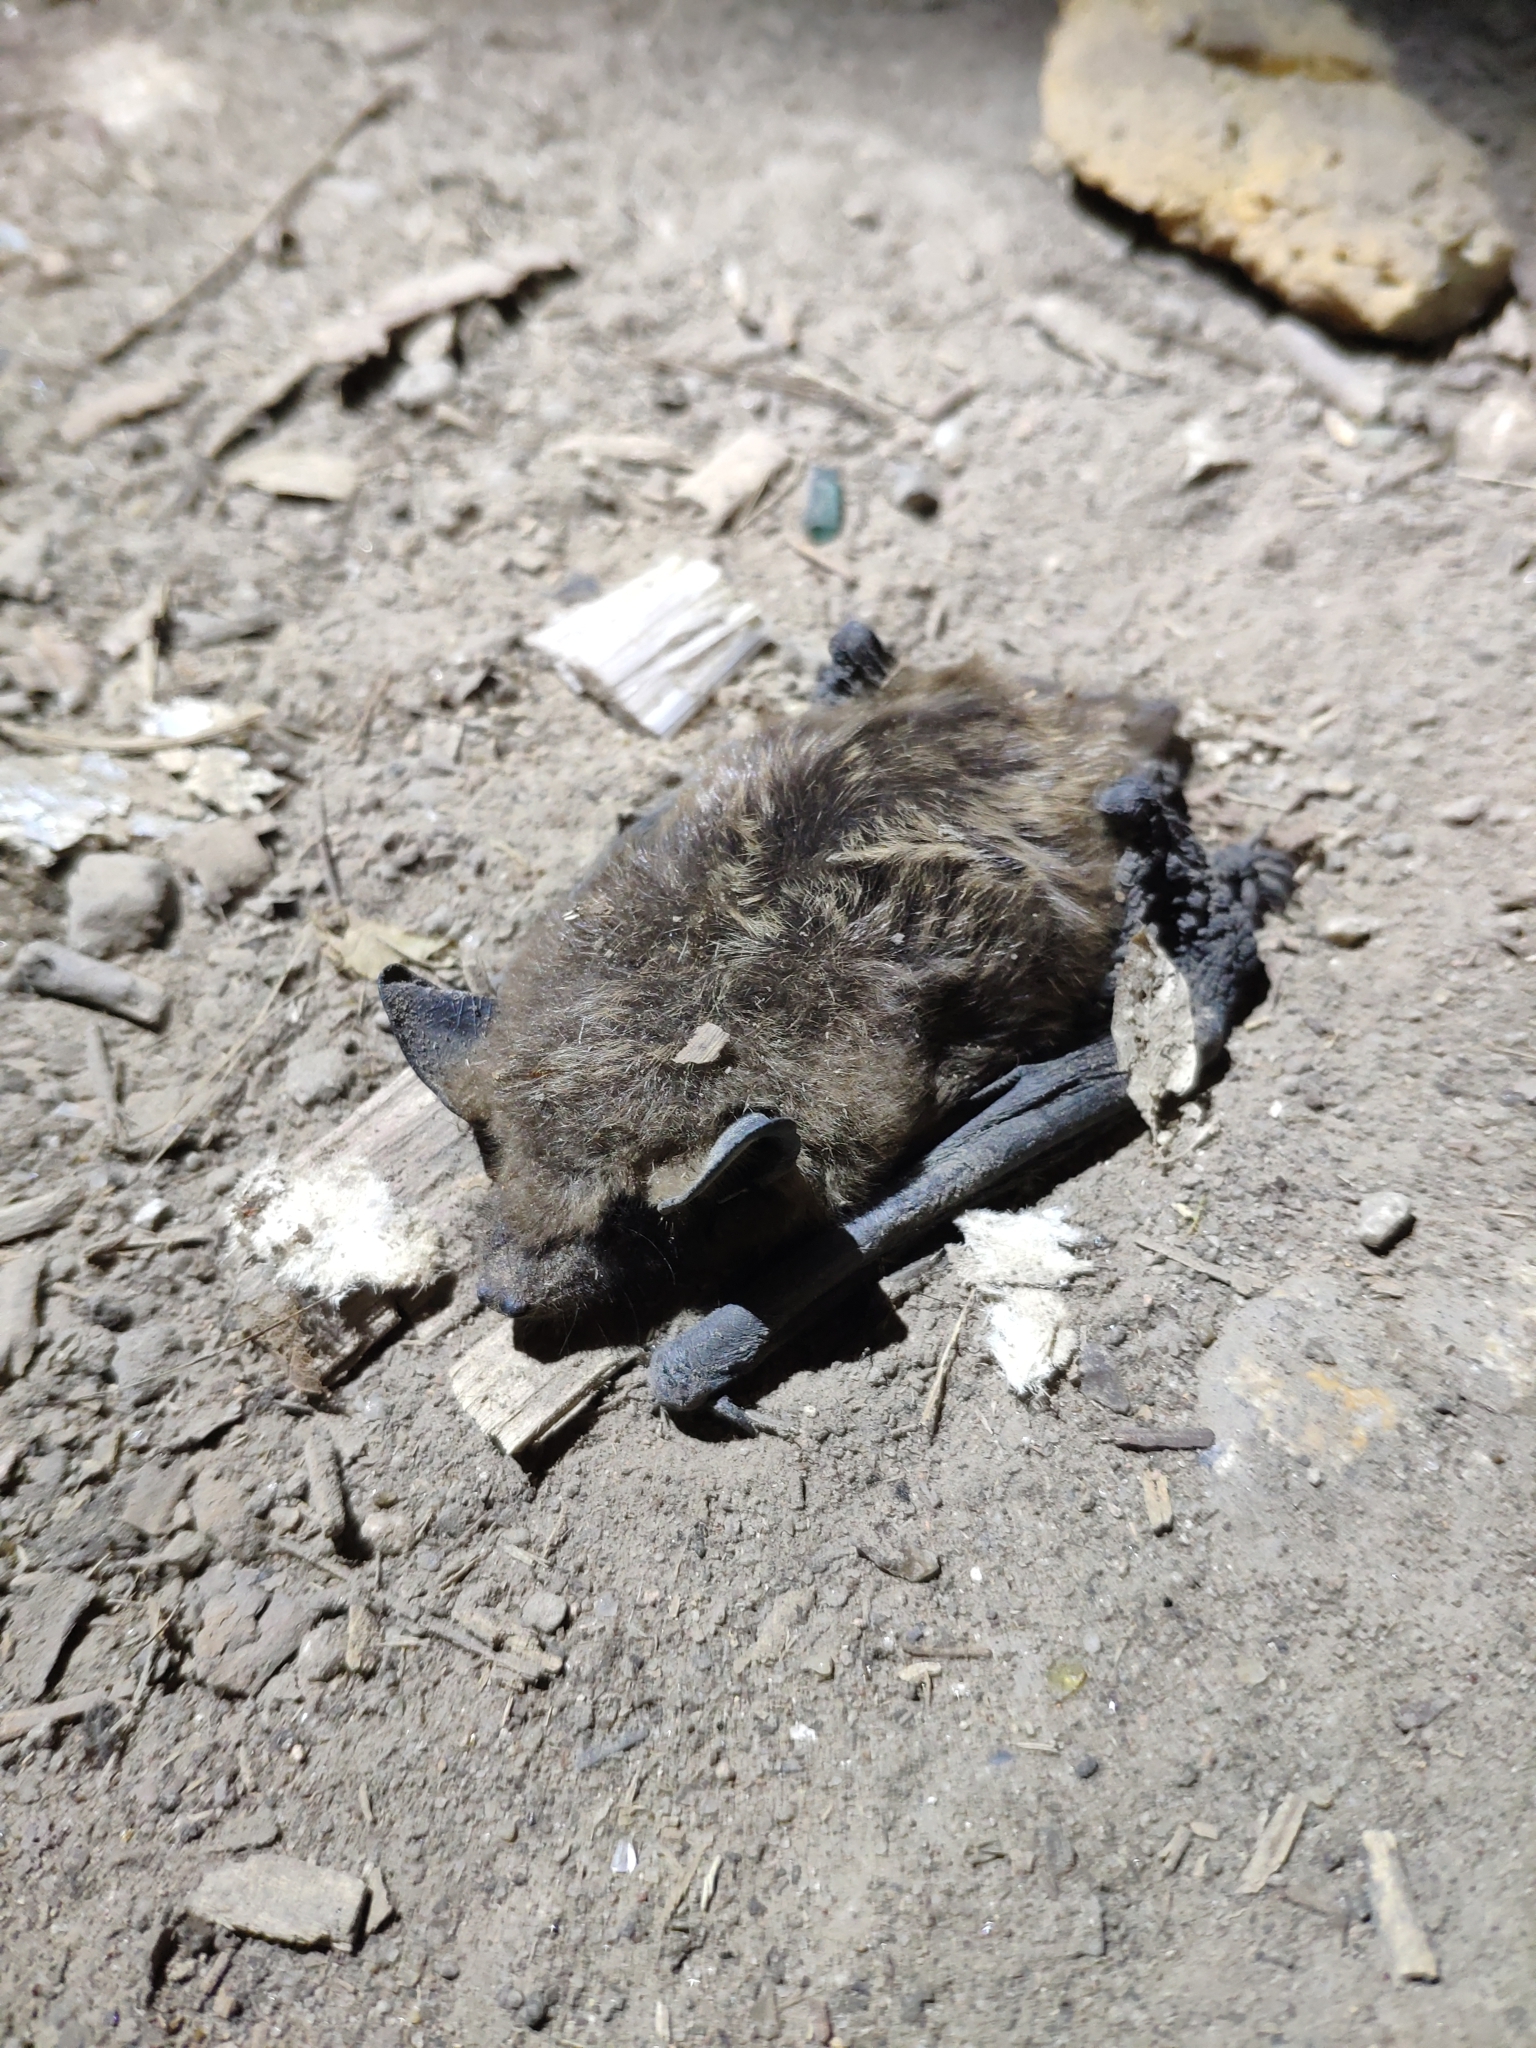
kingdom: Animalia
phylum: Chordata
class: Mammalia
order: Chiroptera
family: Vespertilionidae
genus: Eptesicus
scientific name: Eptesicus serotinus
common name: Serotine
